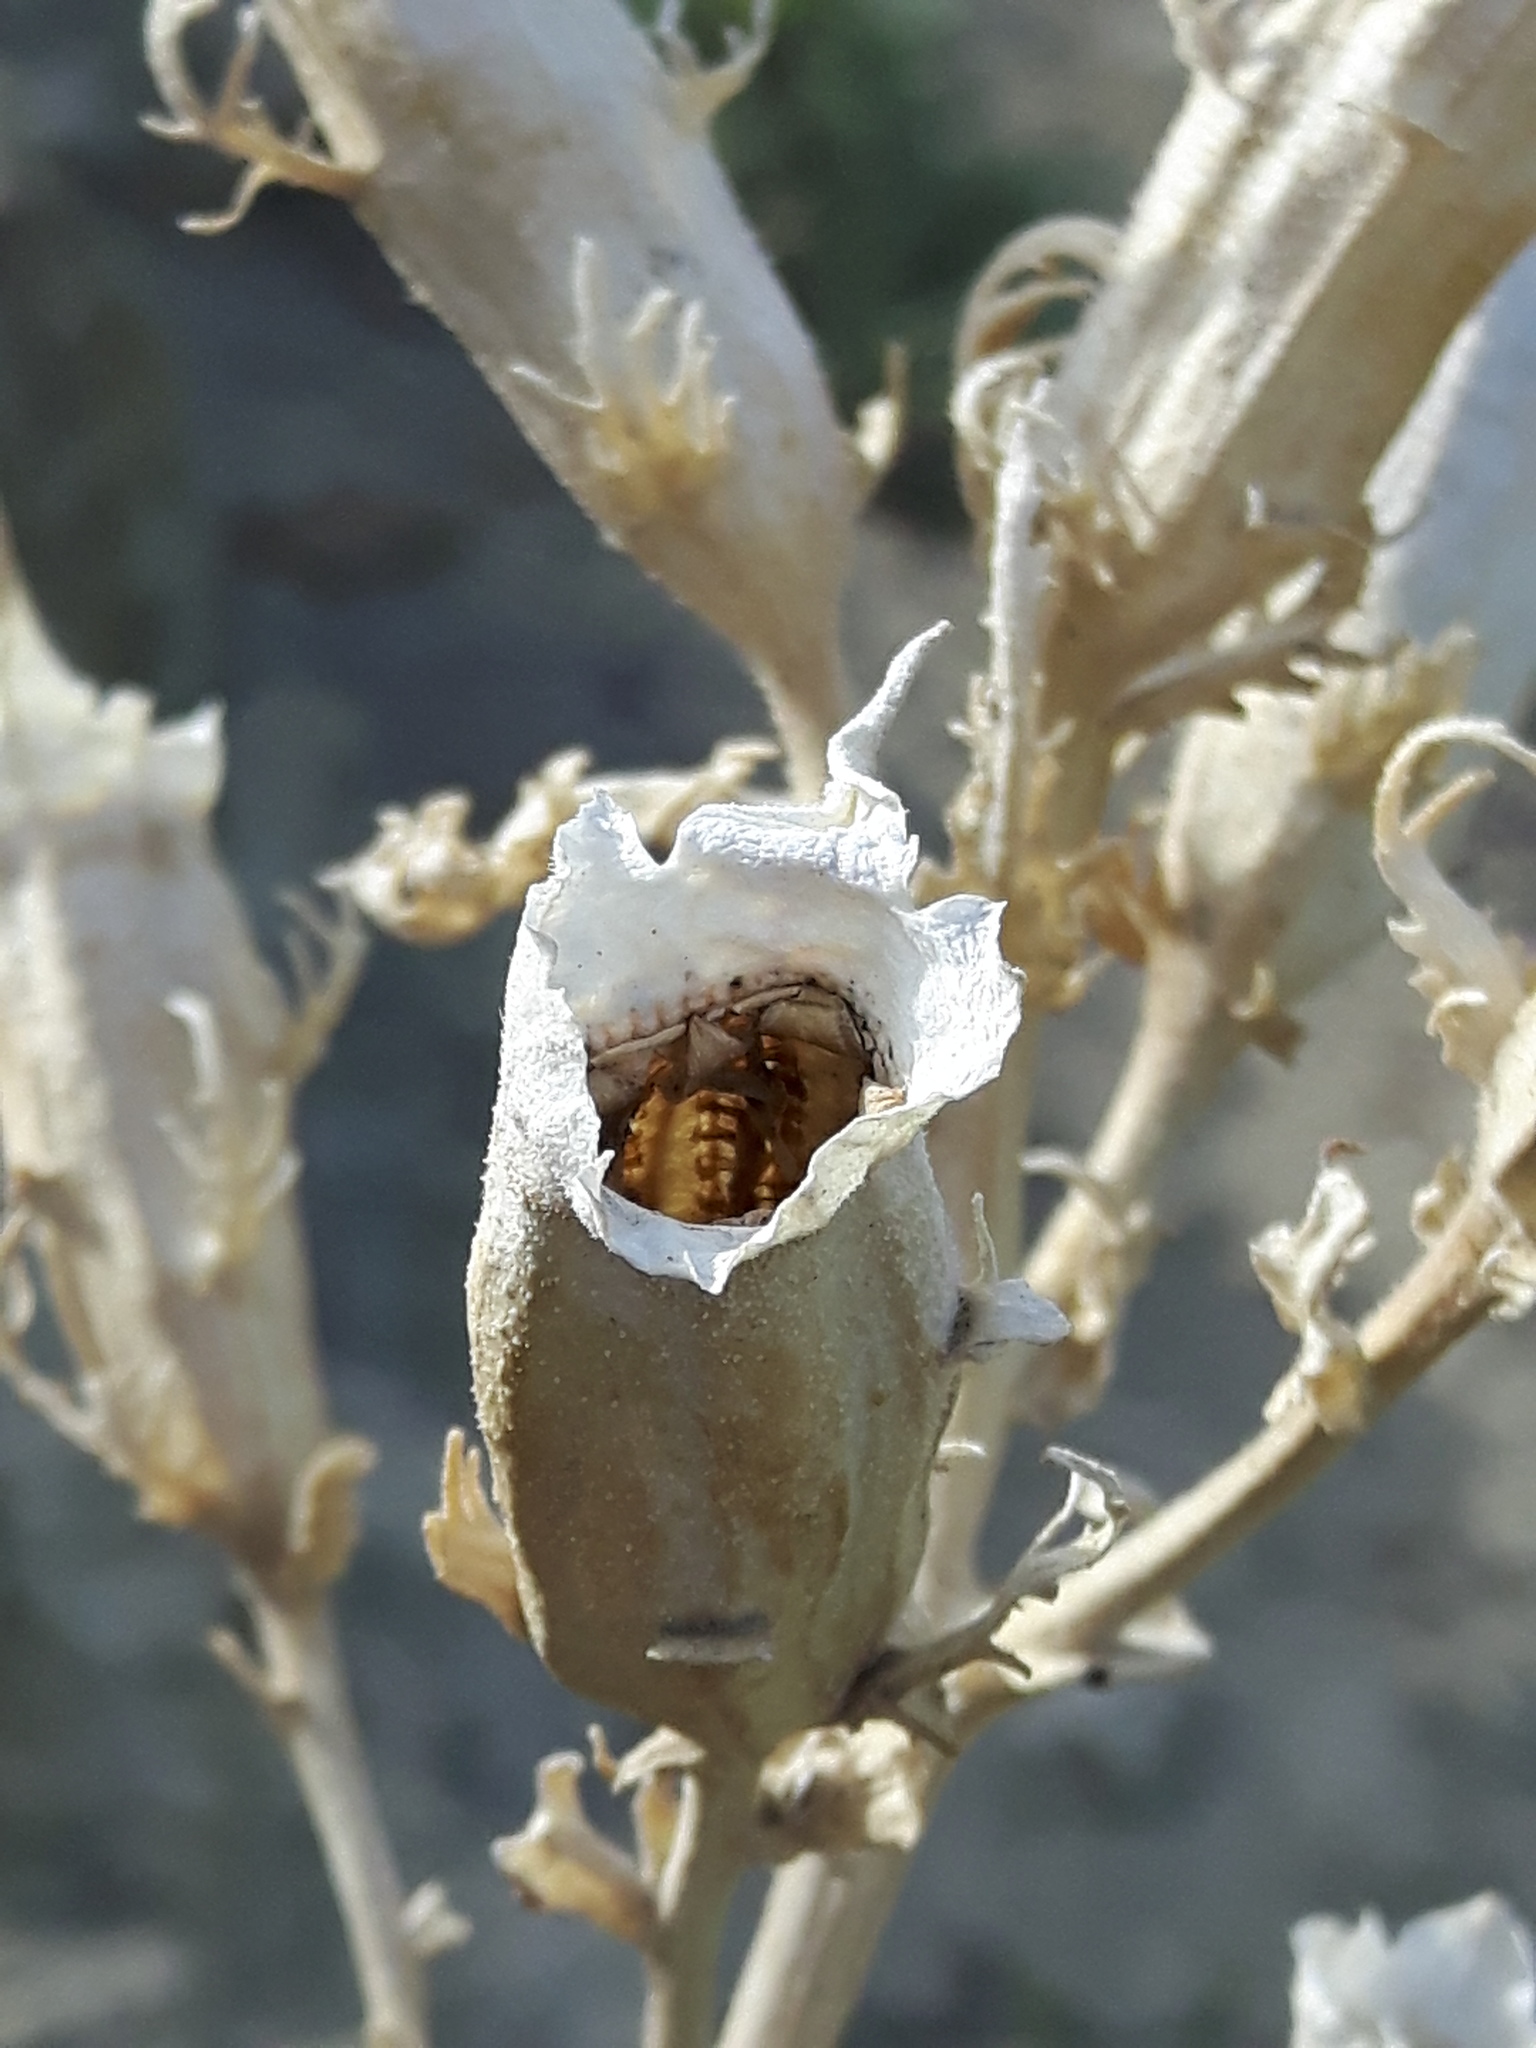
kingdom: Plantae
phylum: Tracheophyta
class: Magnoliopsida
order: Cornales
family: Loasaceae
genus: Mentzelia
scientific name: Mentzelia decapetala
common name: Gumbo-lily
